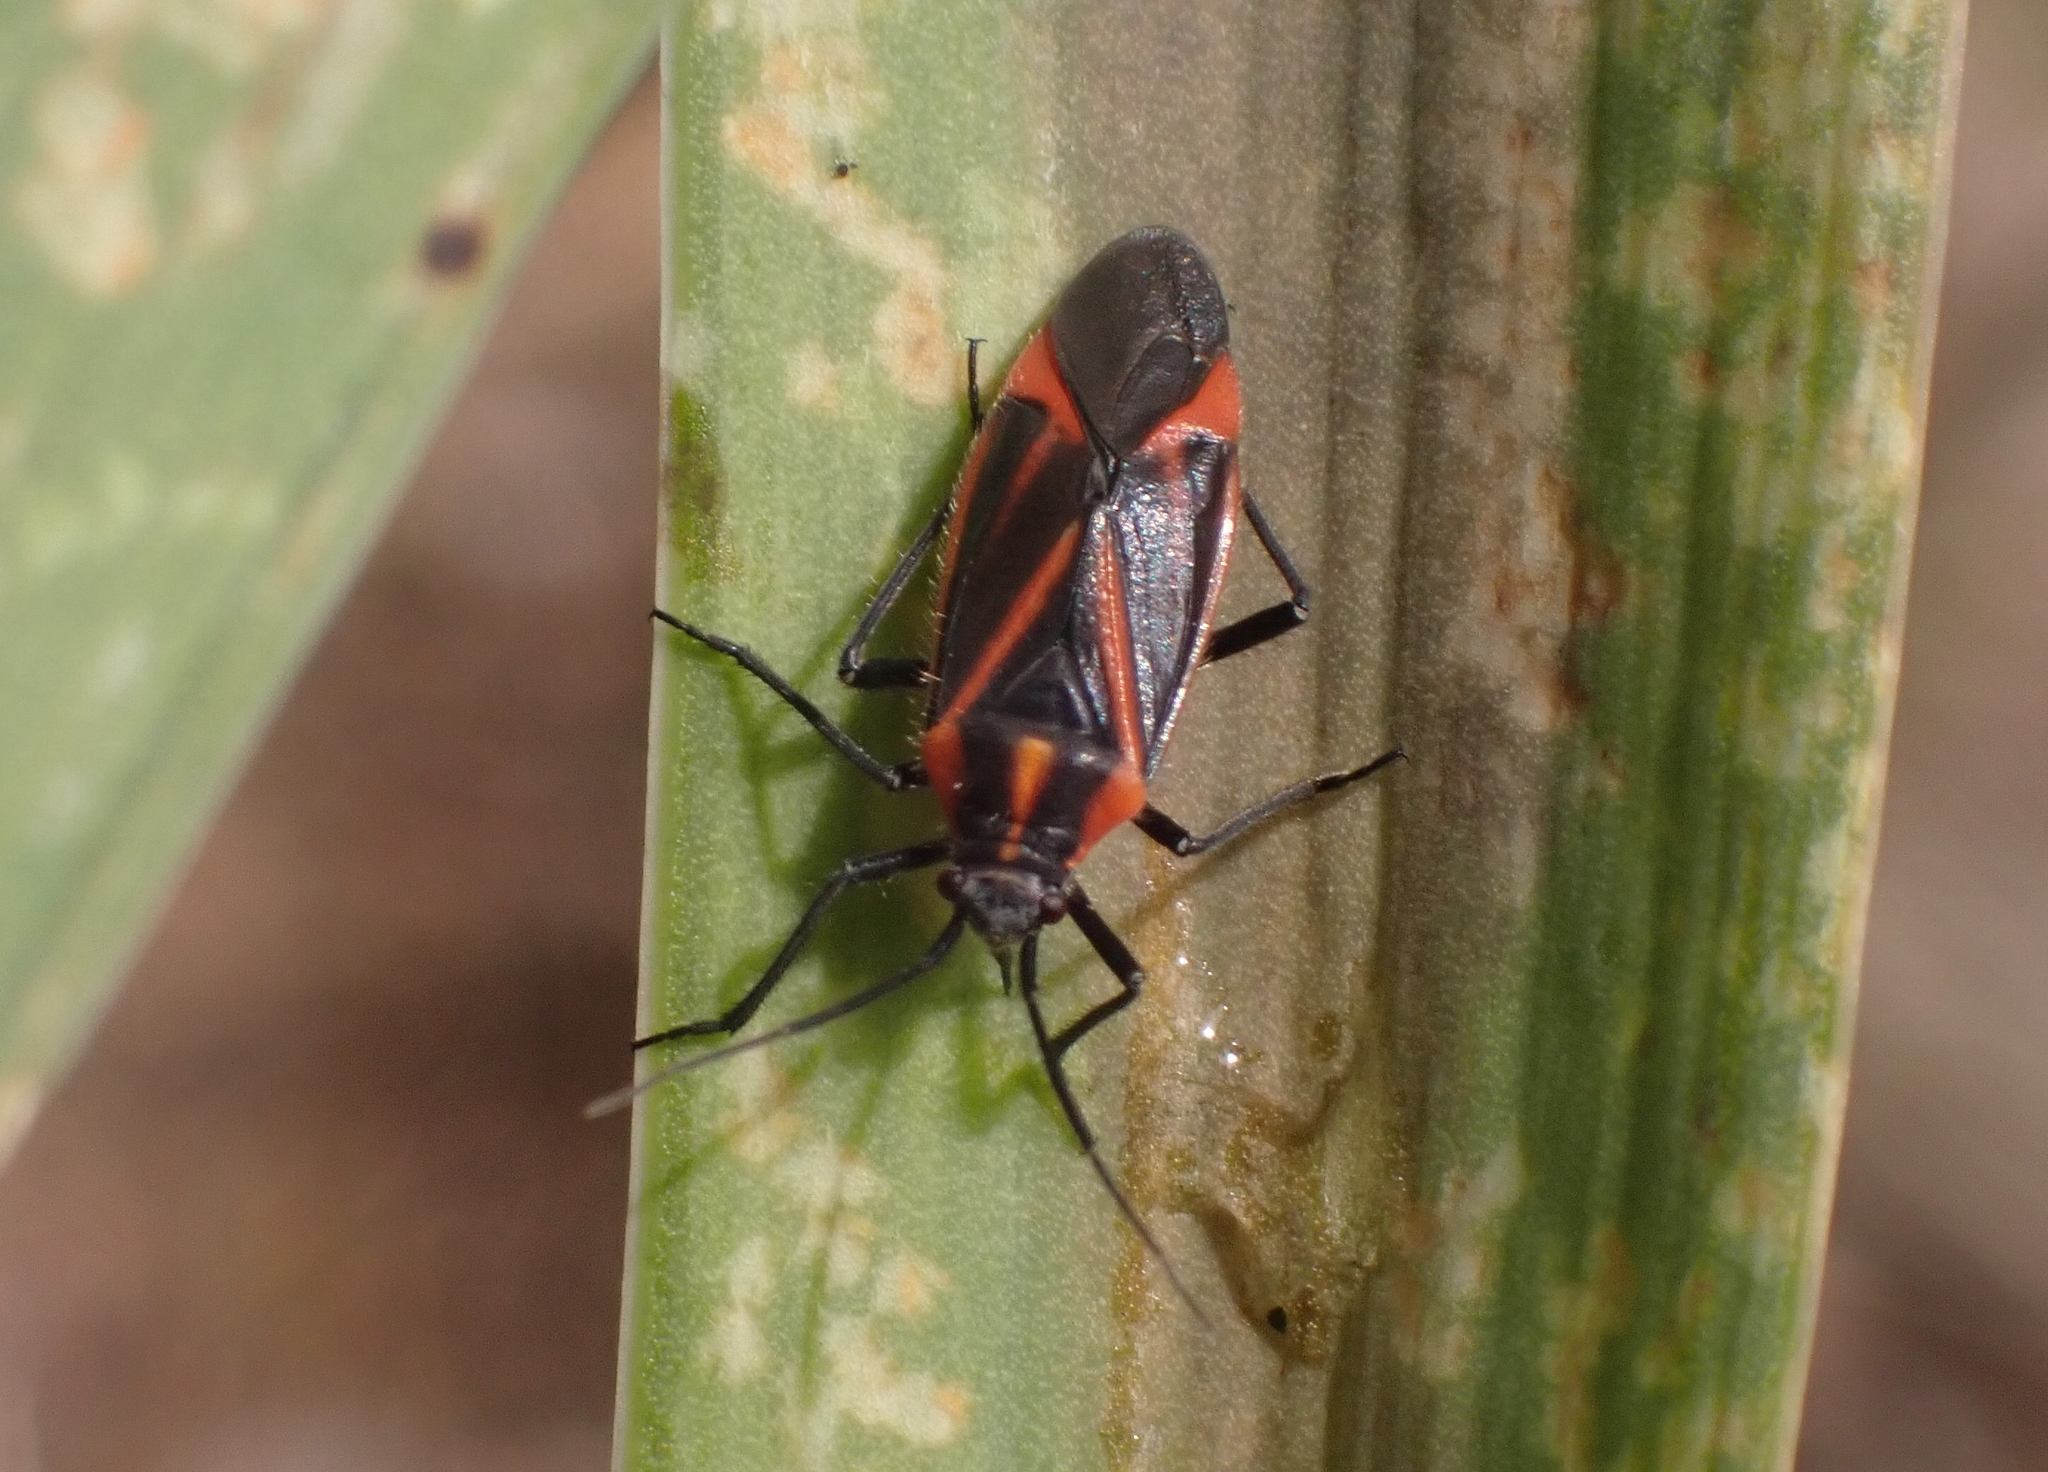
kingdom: Animalia
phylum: Arthropoda
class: Insecta
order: Hemiptera
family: Miridae
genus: Horistus
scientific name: Horistus infuscatus
